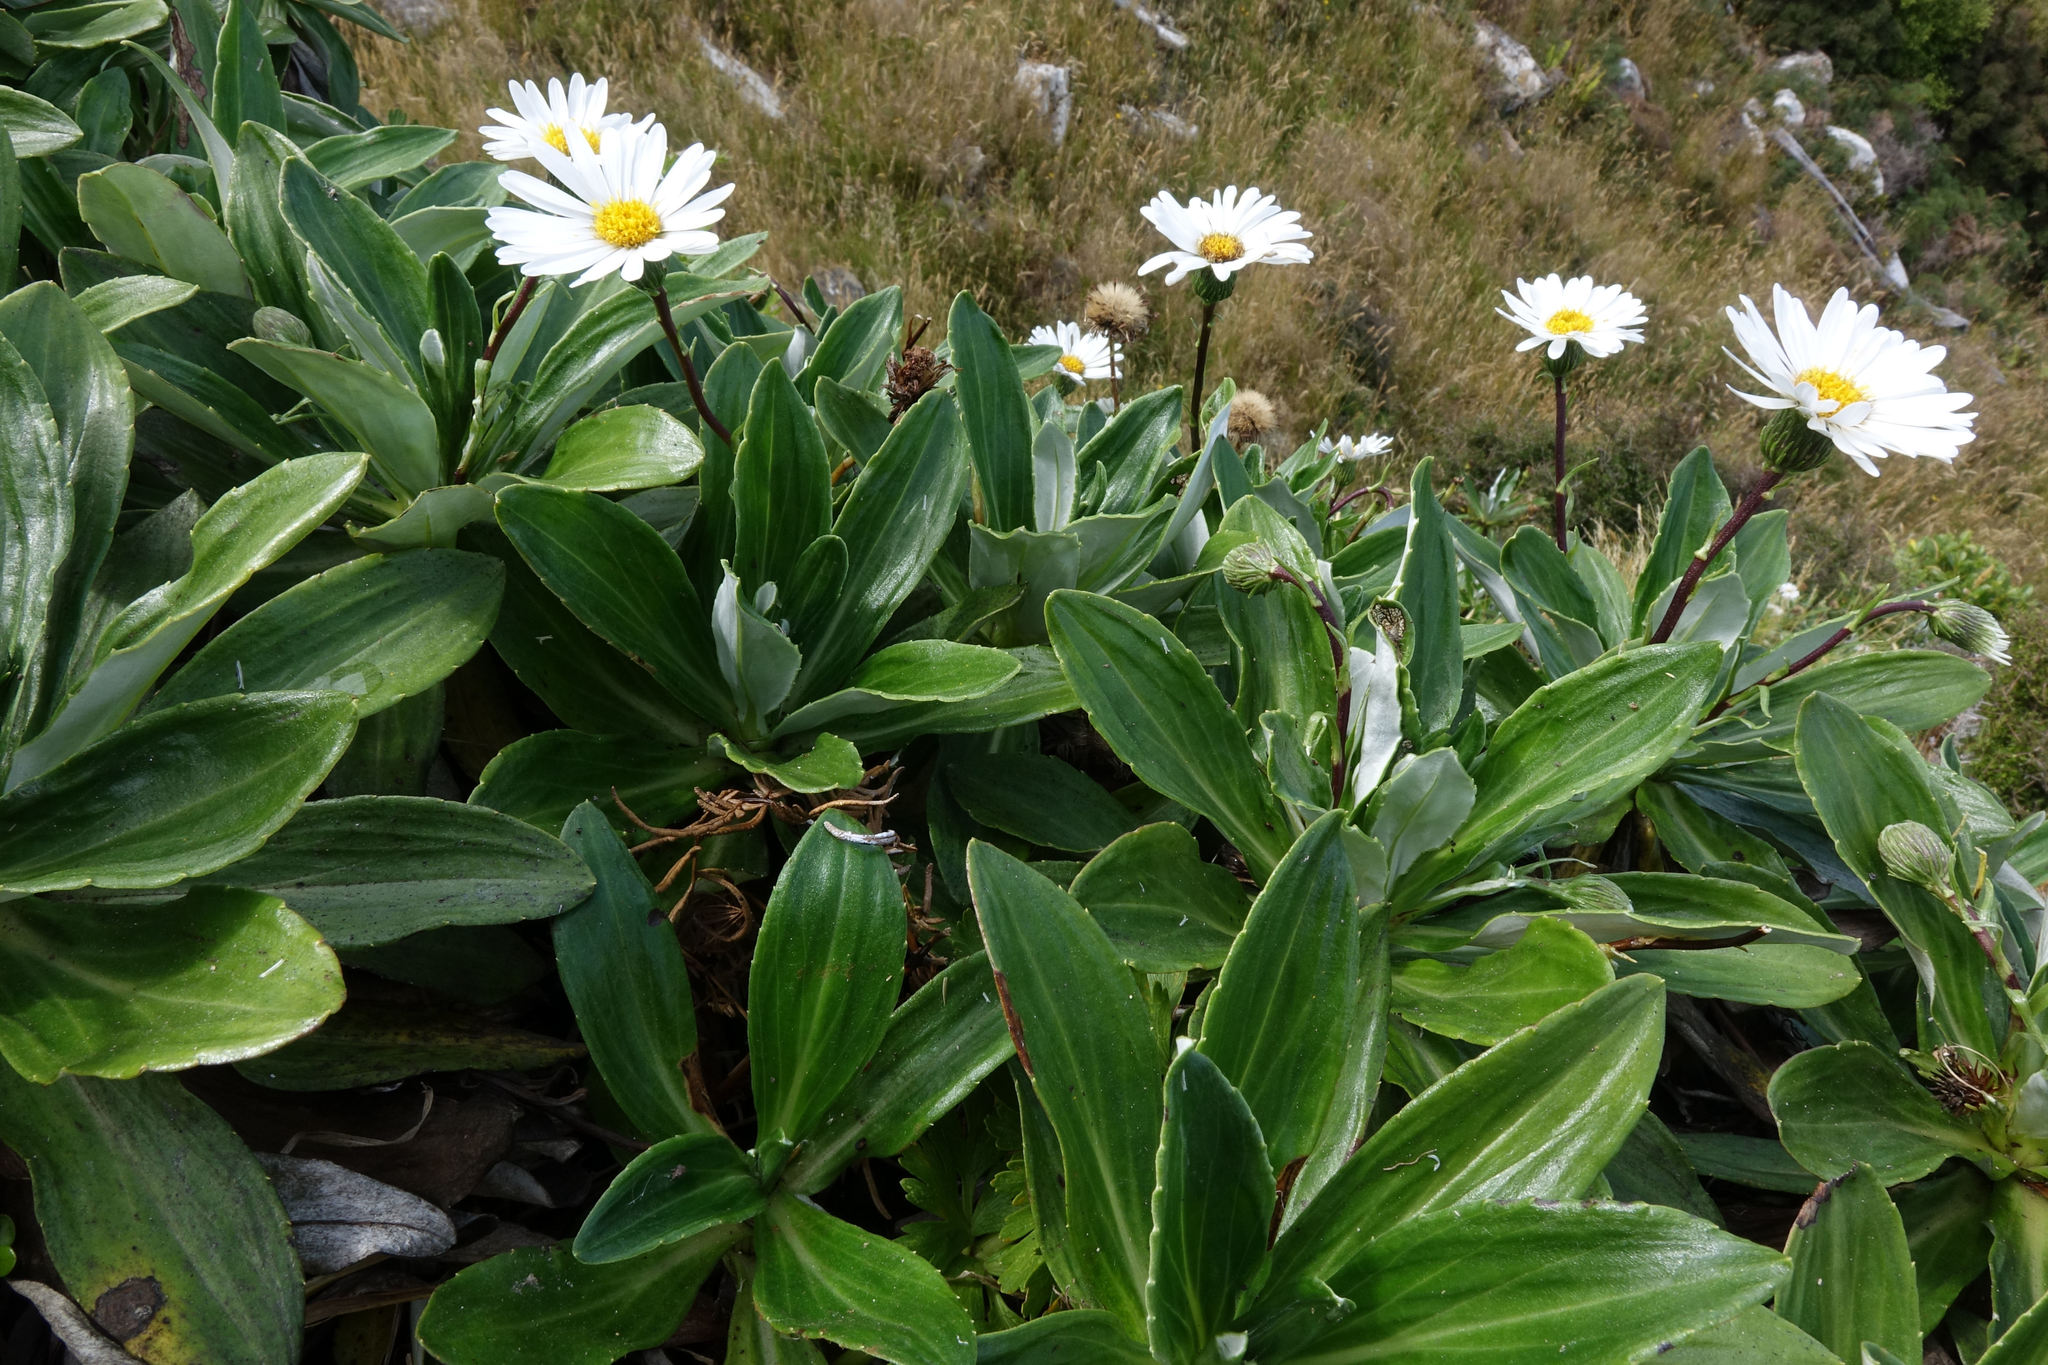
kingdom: Plantae
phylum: Tracheophyta
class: Magnoliopsida
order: Asterales
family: Asteraceae
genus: Celmisia
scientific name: Celmisia lindsayi
